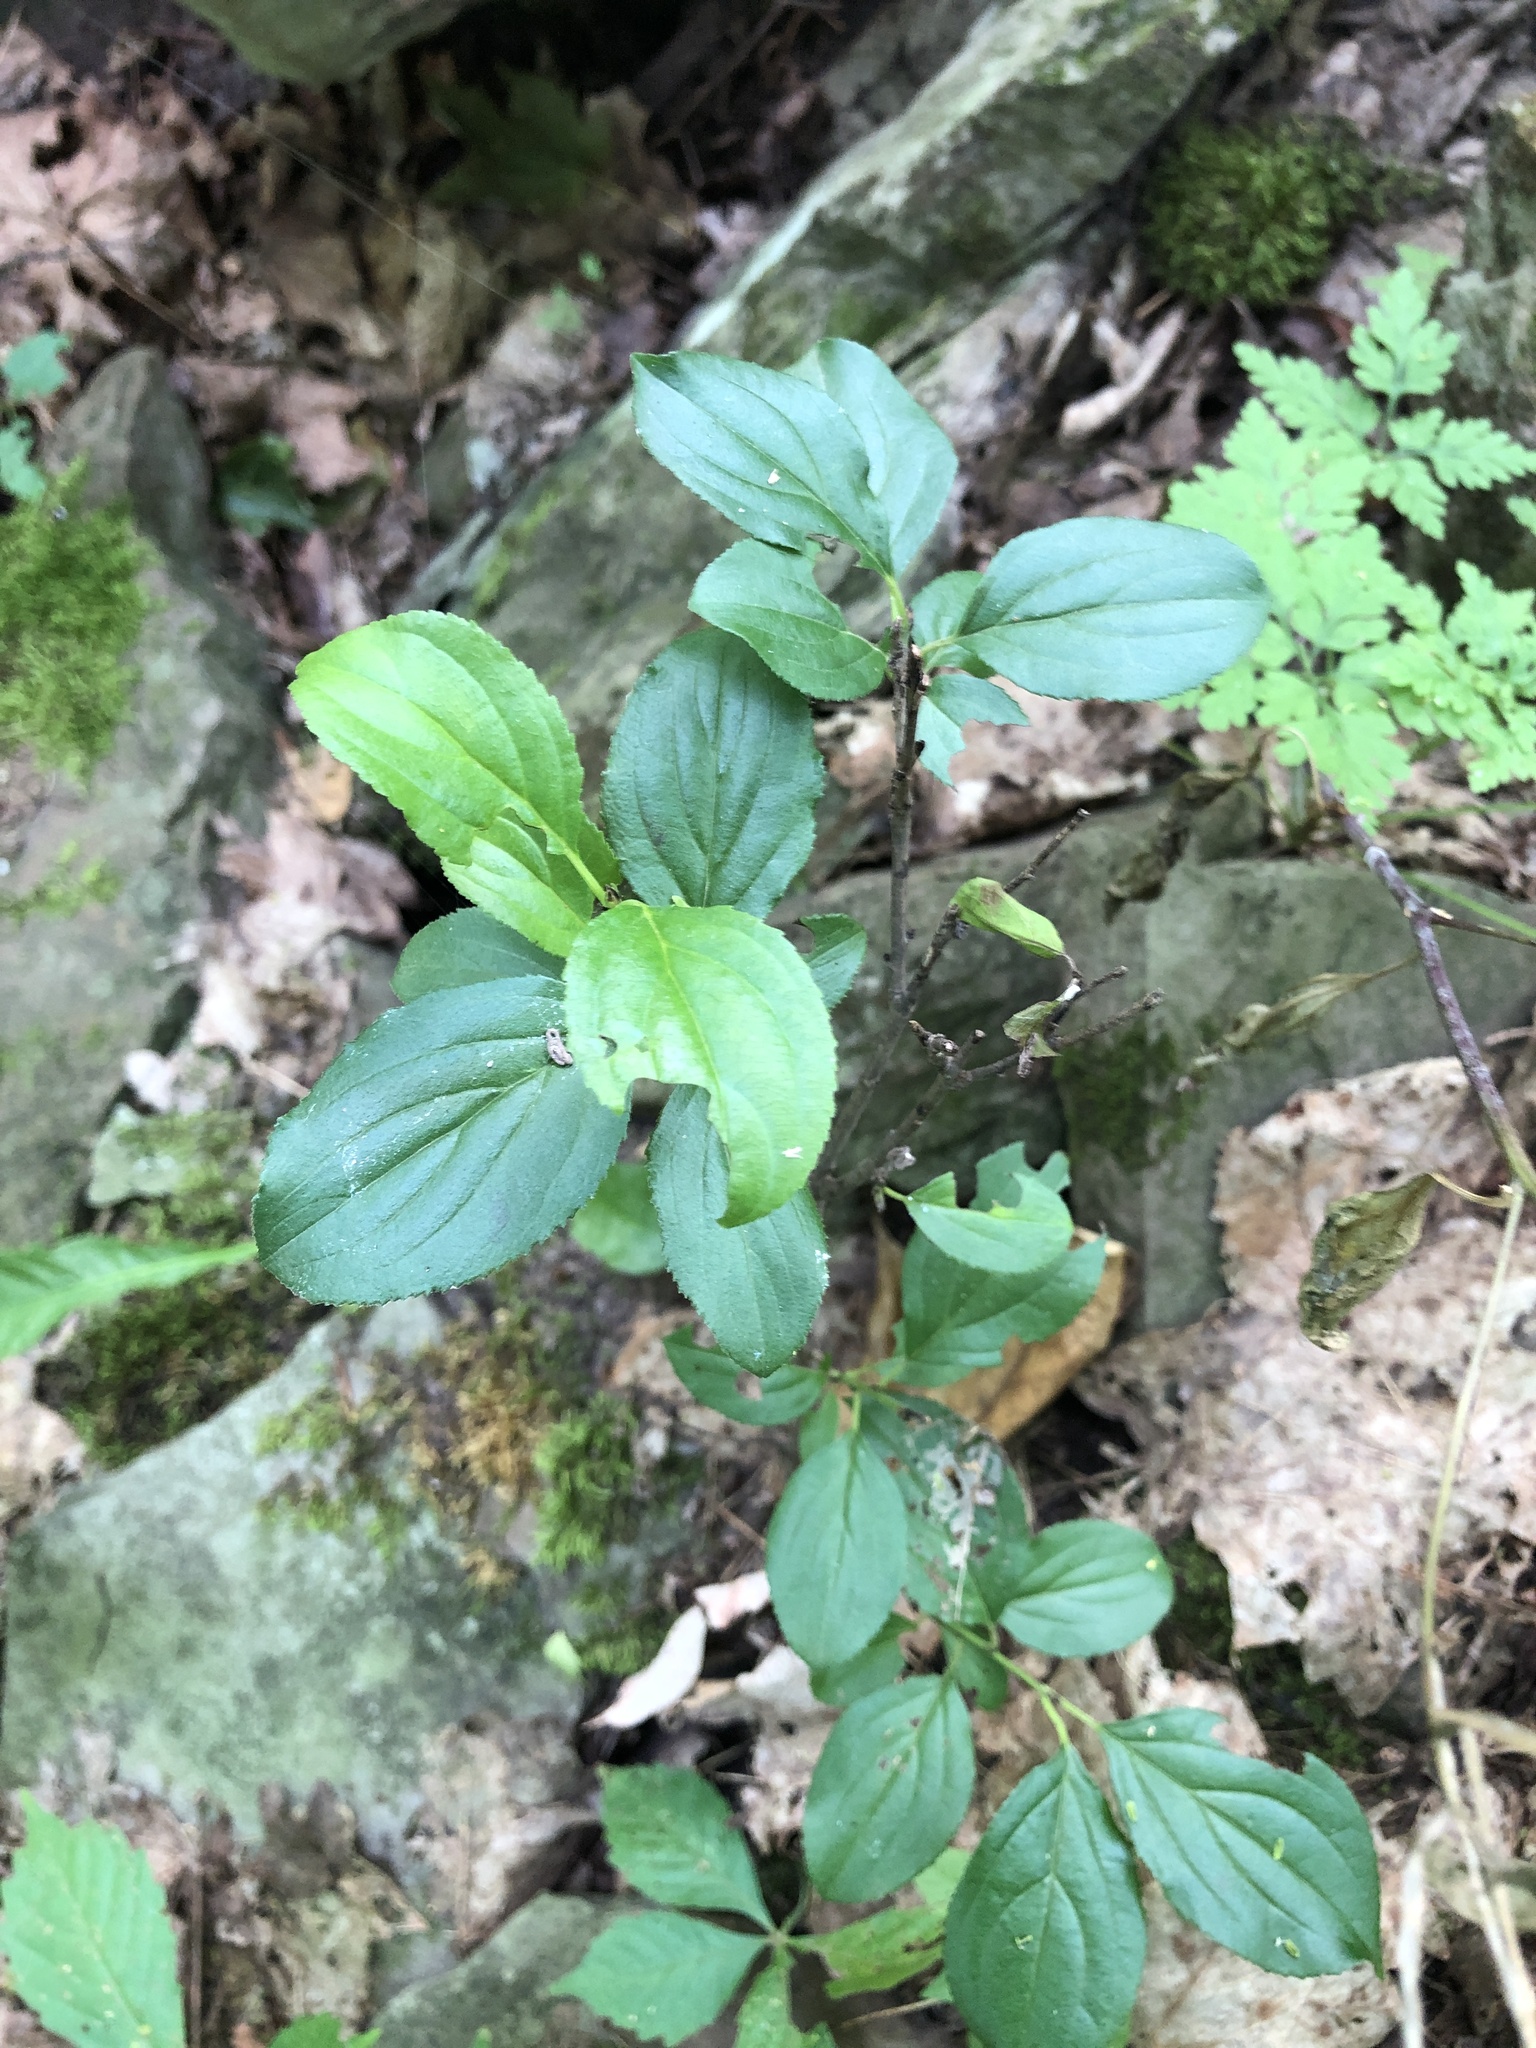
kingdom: Plantae
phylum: Tracheophyta
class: Magnoliopsida
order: Rosales
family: Rhamnaceae
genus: Rhamnus
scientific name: Rhamnus cathartica
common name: Common buckthorn
